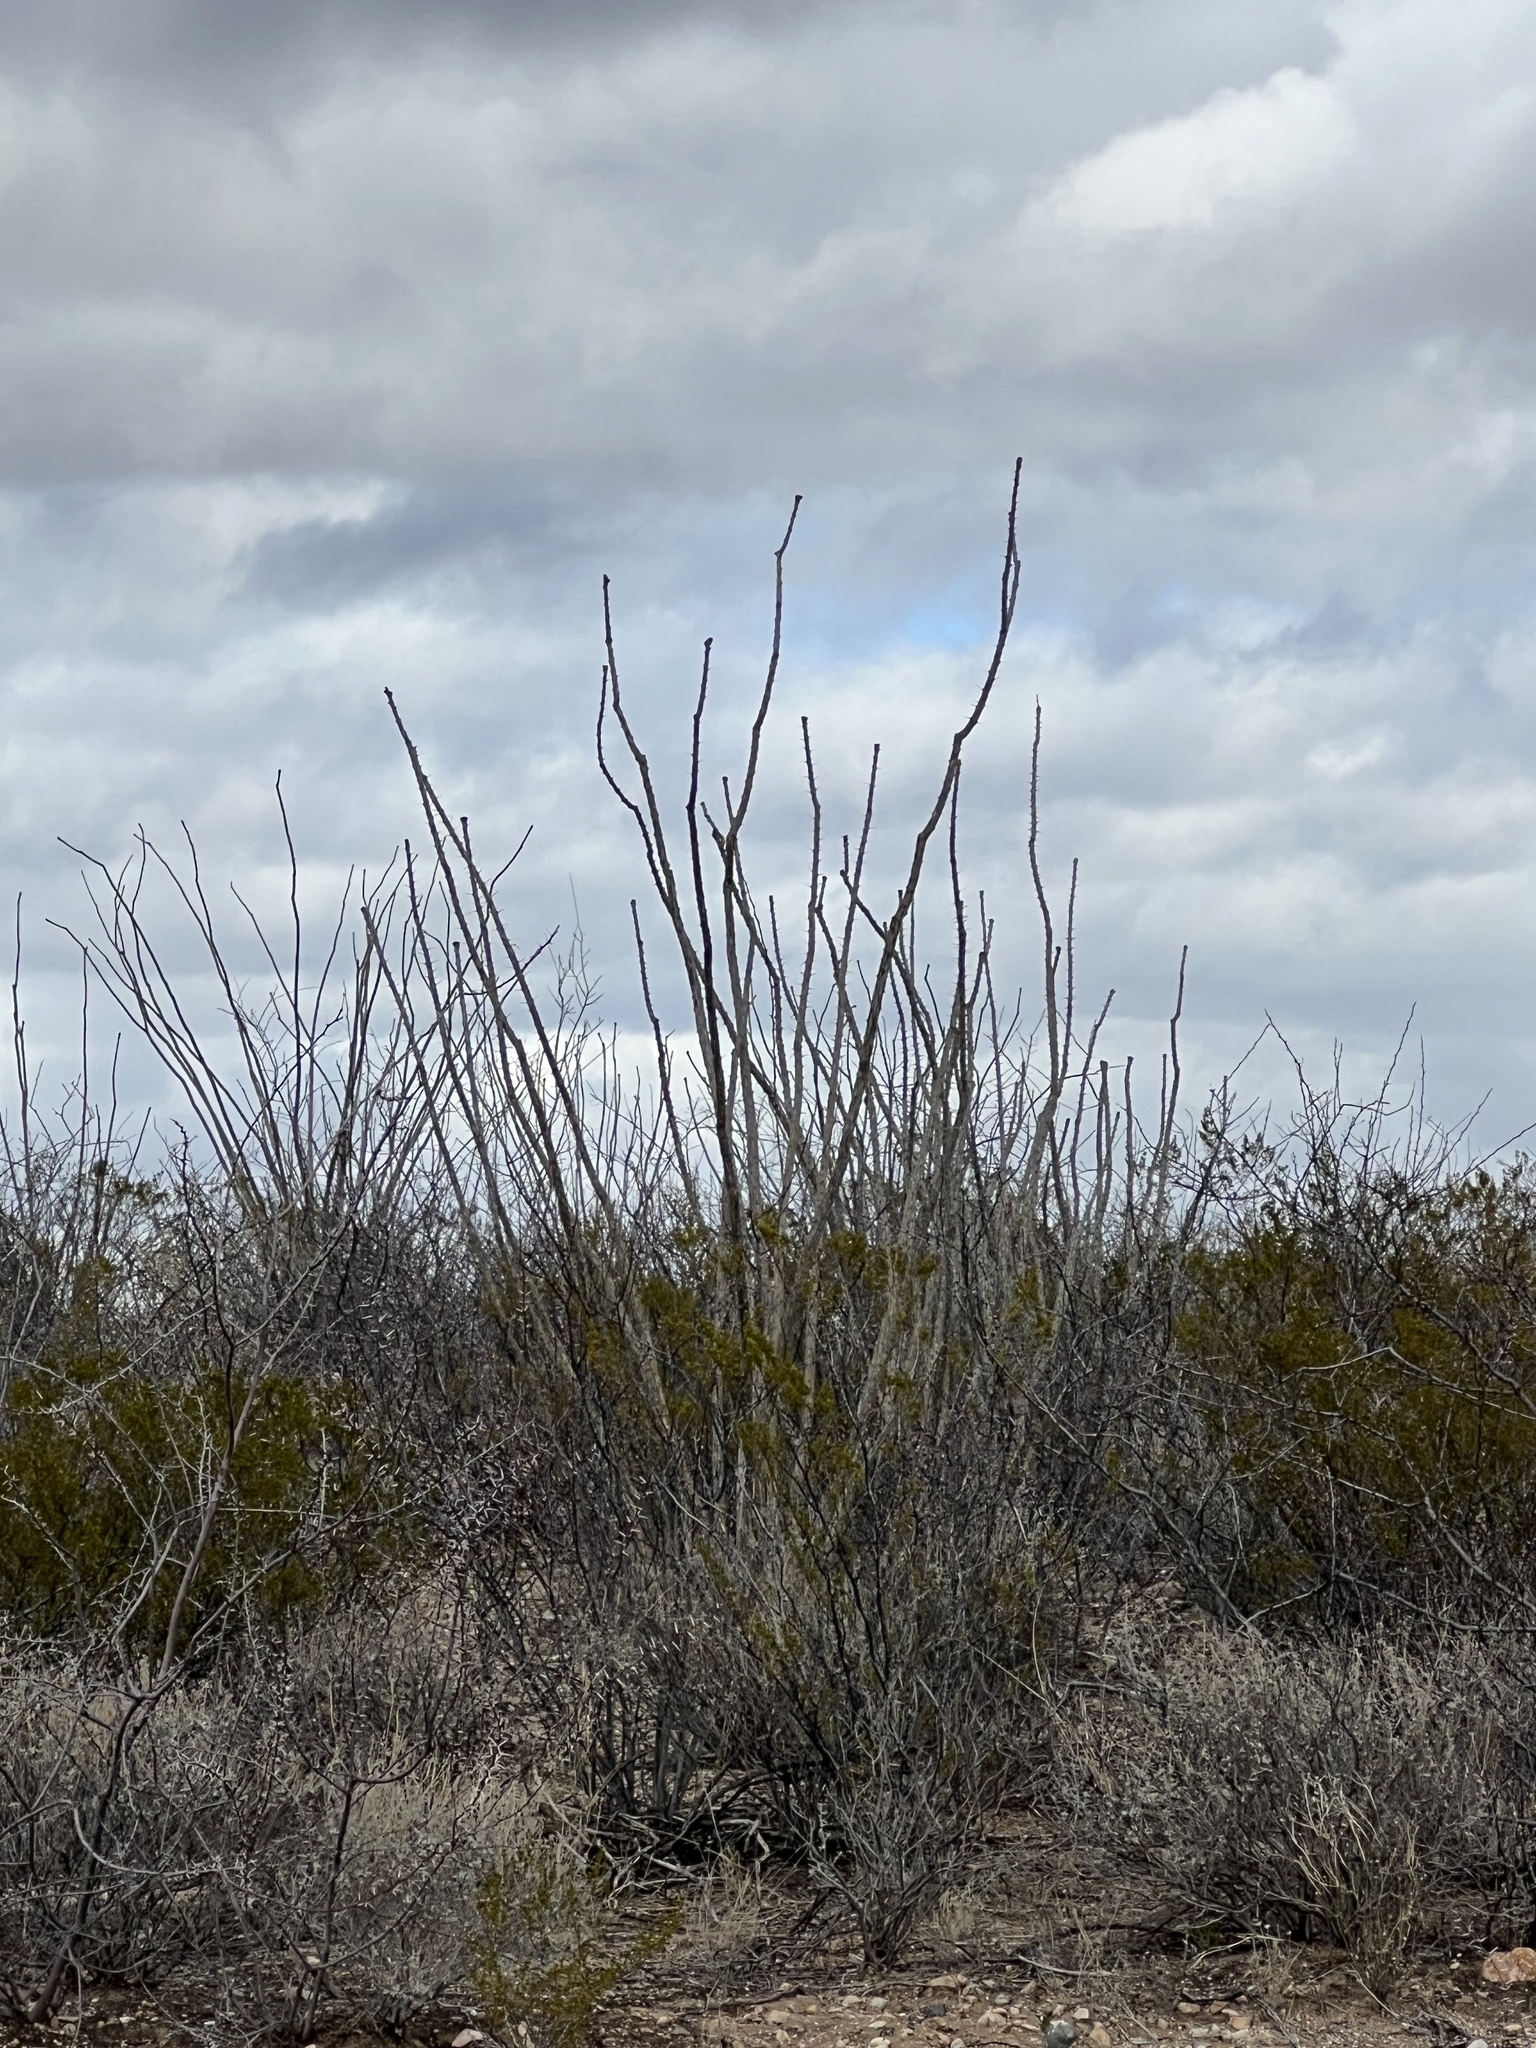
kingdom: Plantae
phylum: Tracheophyta
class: Magnoliopsida
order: Ericales
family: Fouquieriaceae
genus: Fouquieria
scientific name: Fouquieria splendens
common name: Vine-cactus
